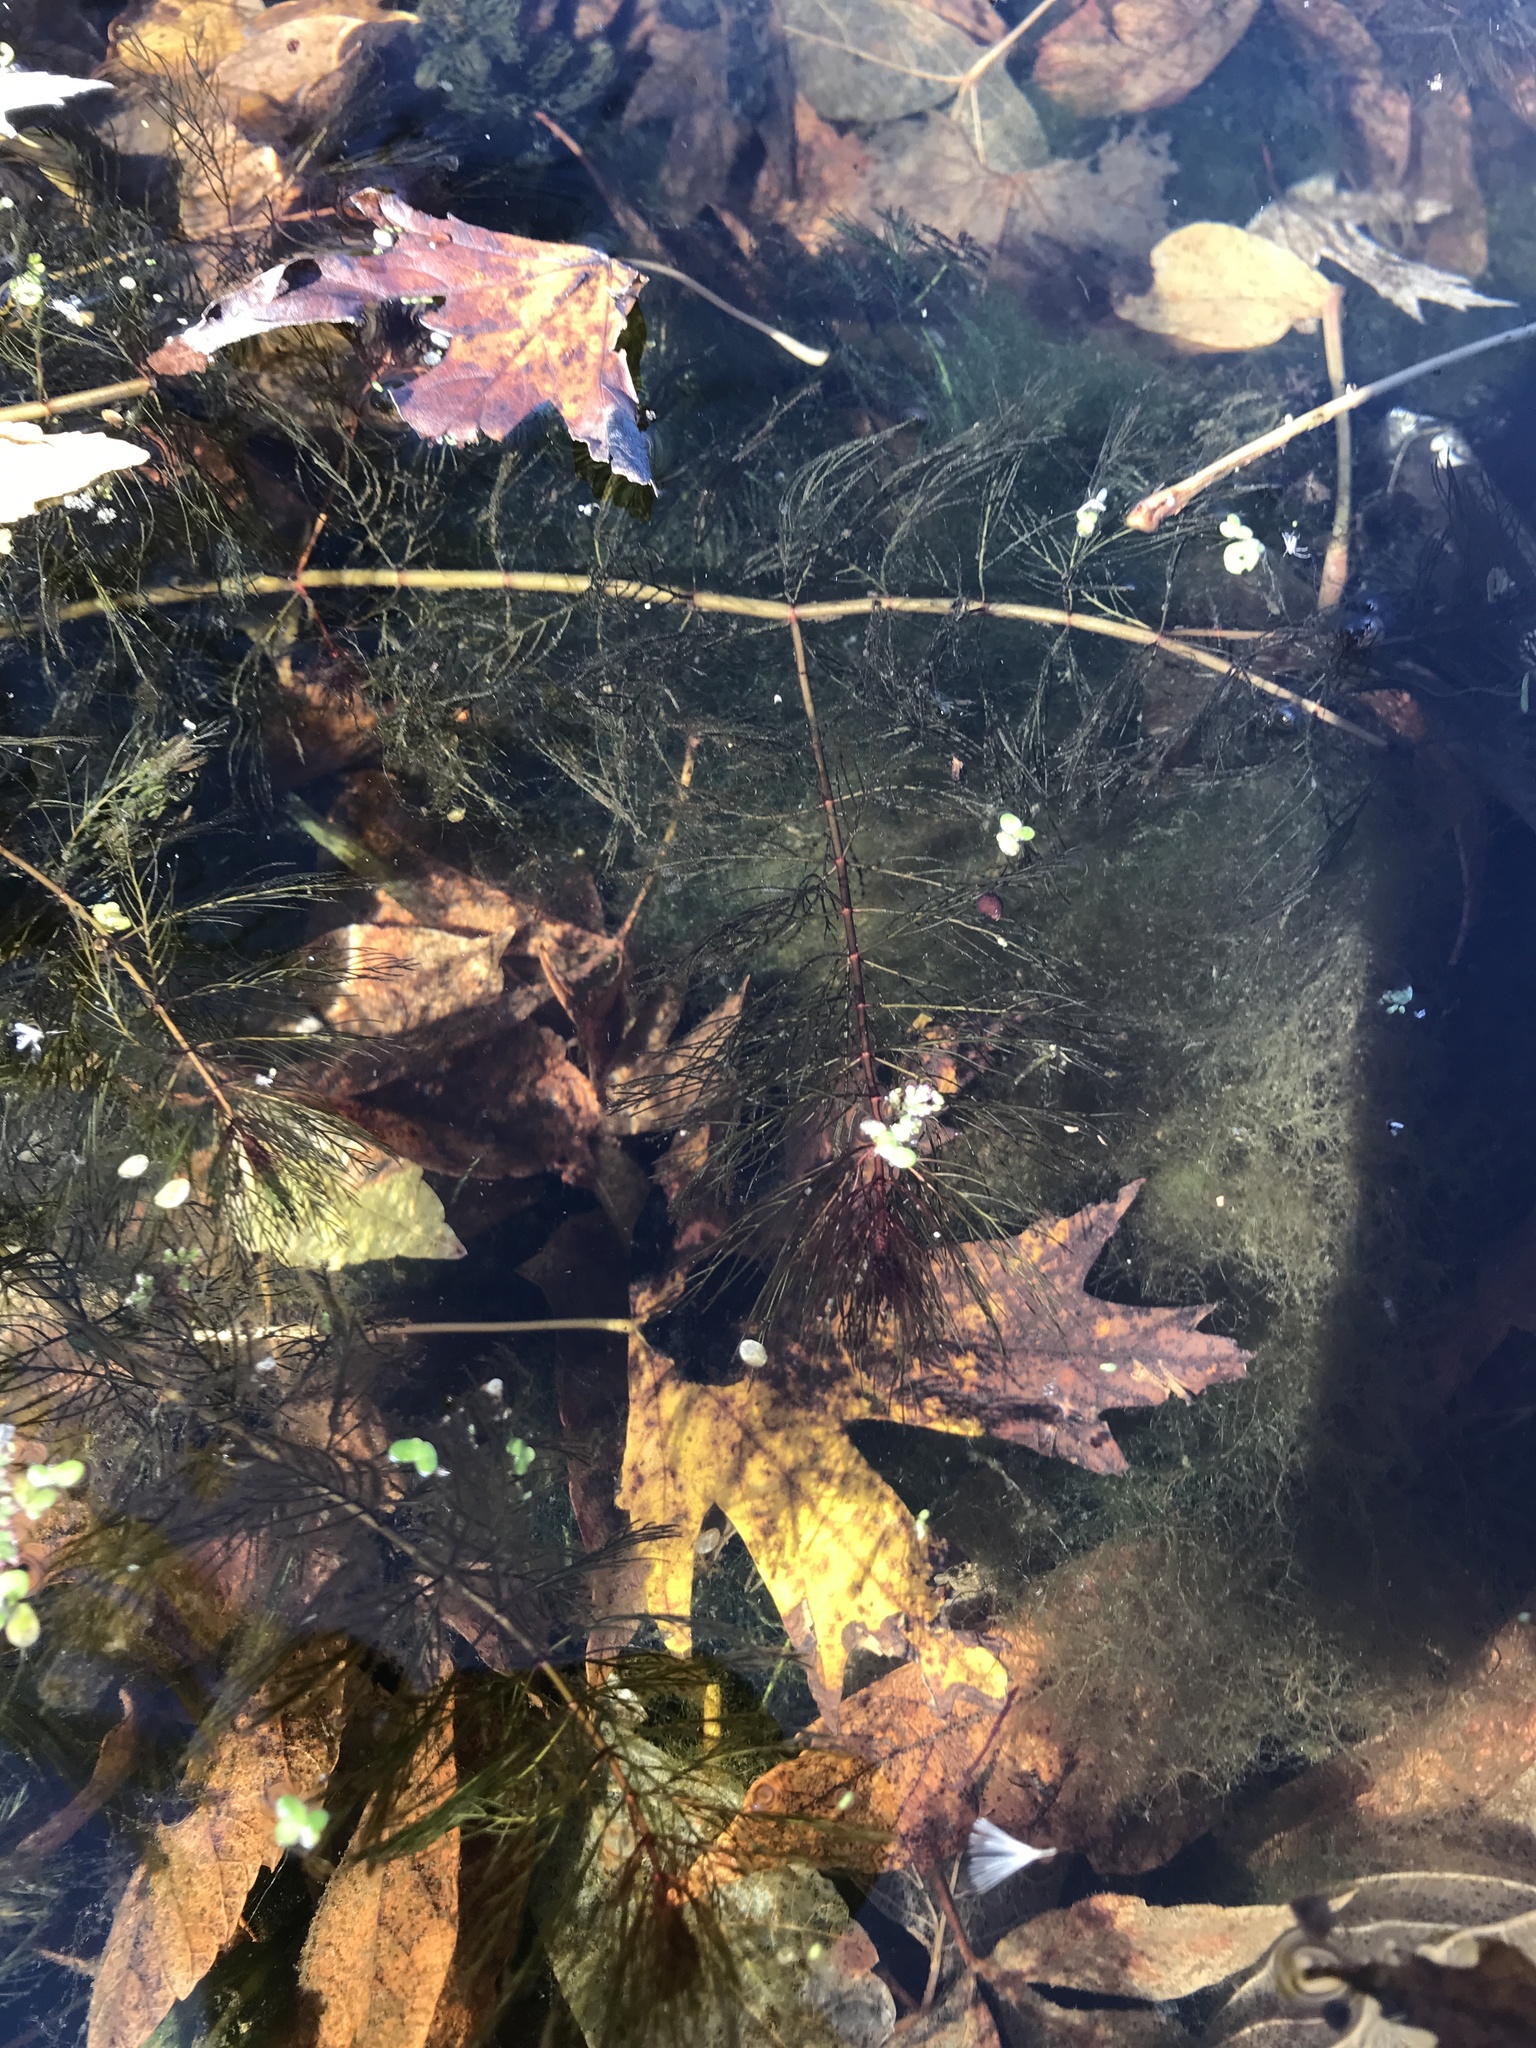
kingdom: Plantae
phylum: Tracheophyta
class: Magnoliopsida
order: Saxifragales
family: Haloragaceae
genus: Myriophyllum
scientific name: Myriophyllum spicatum
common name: Spiked water-milfoil
